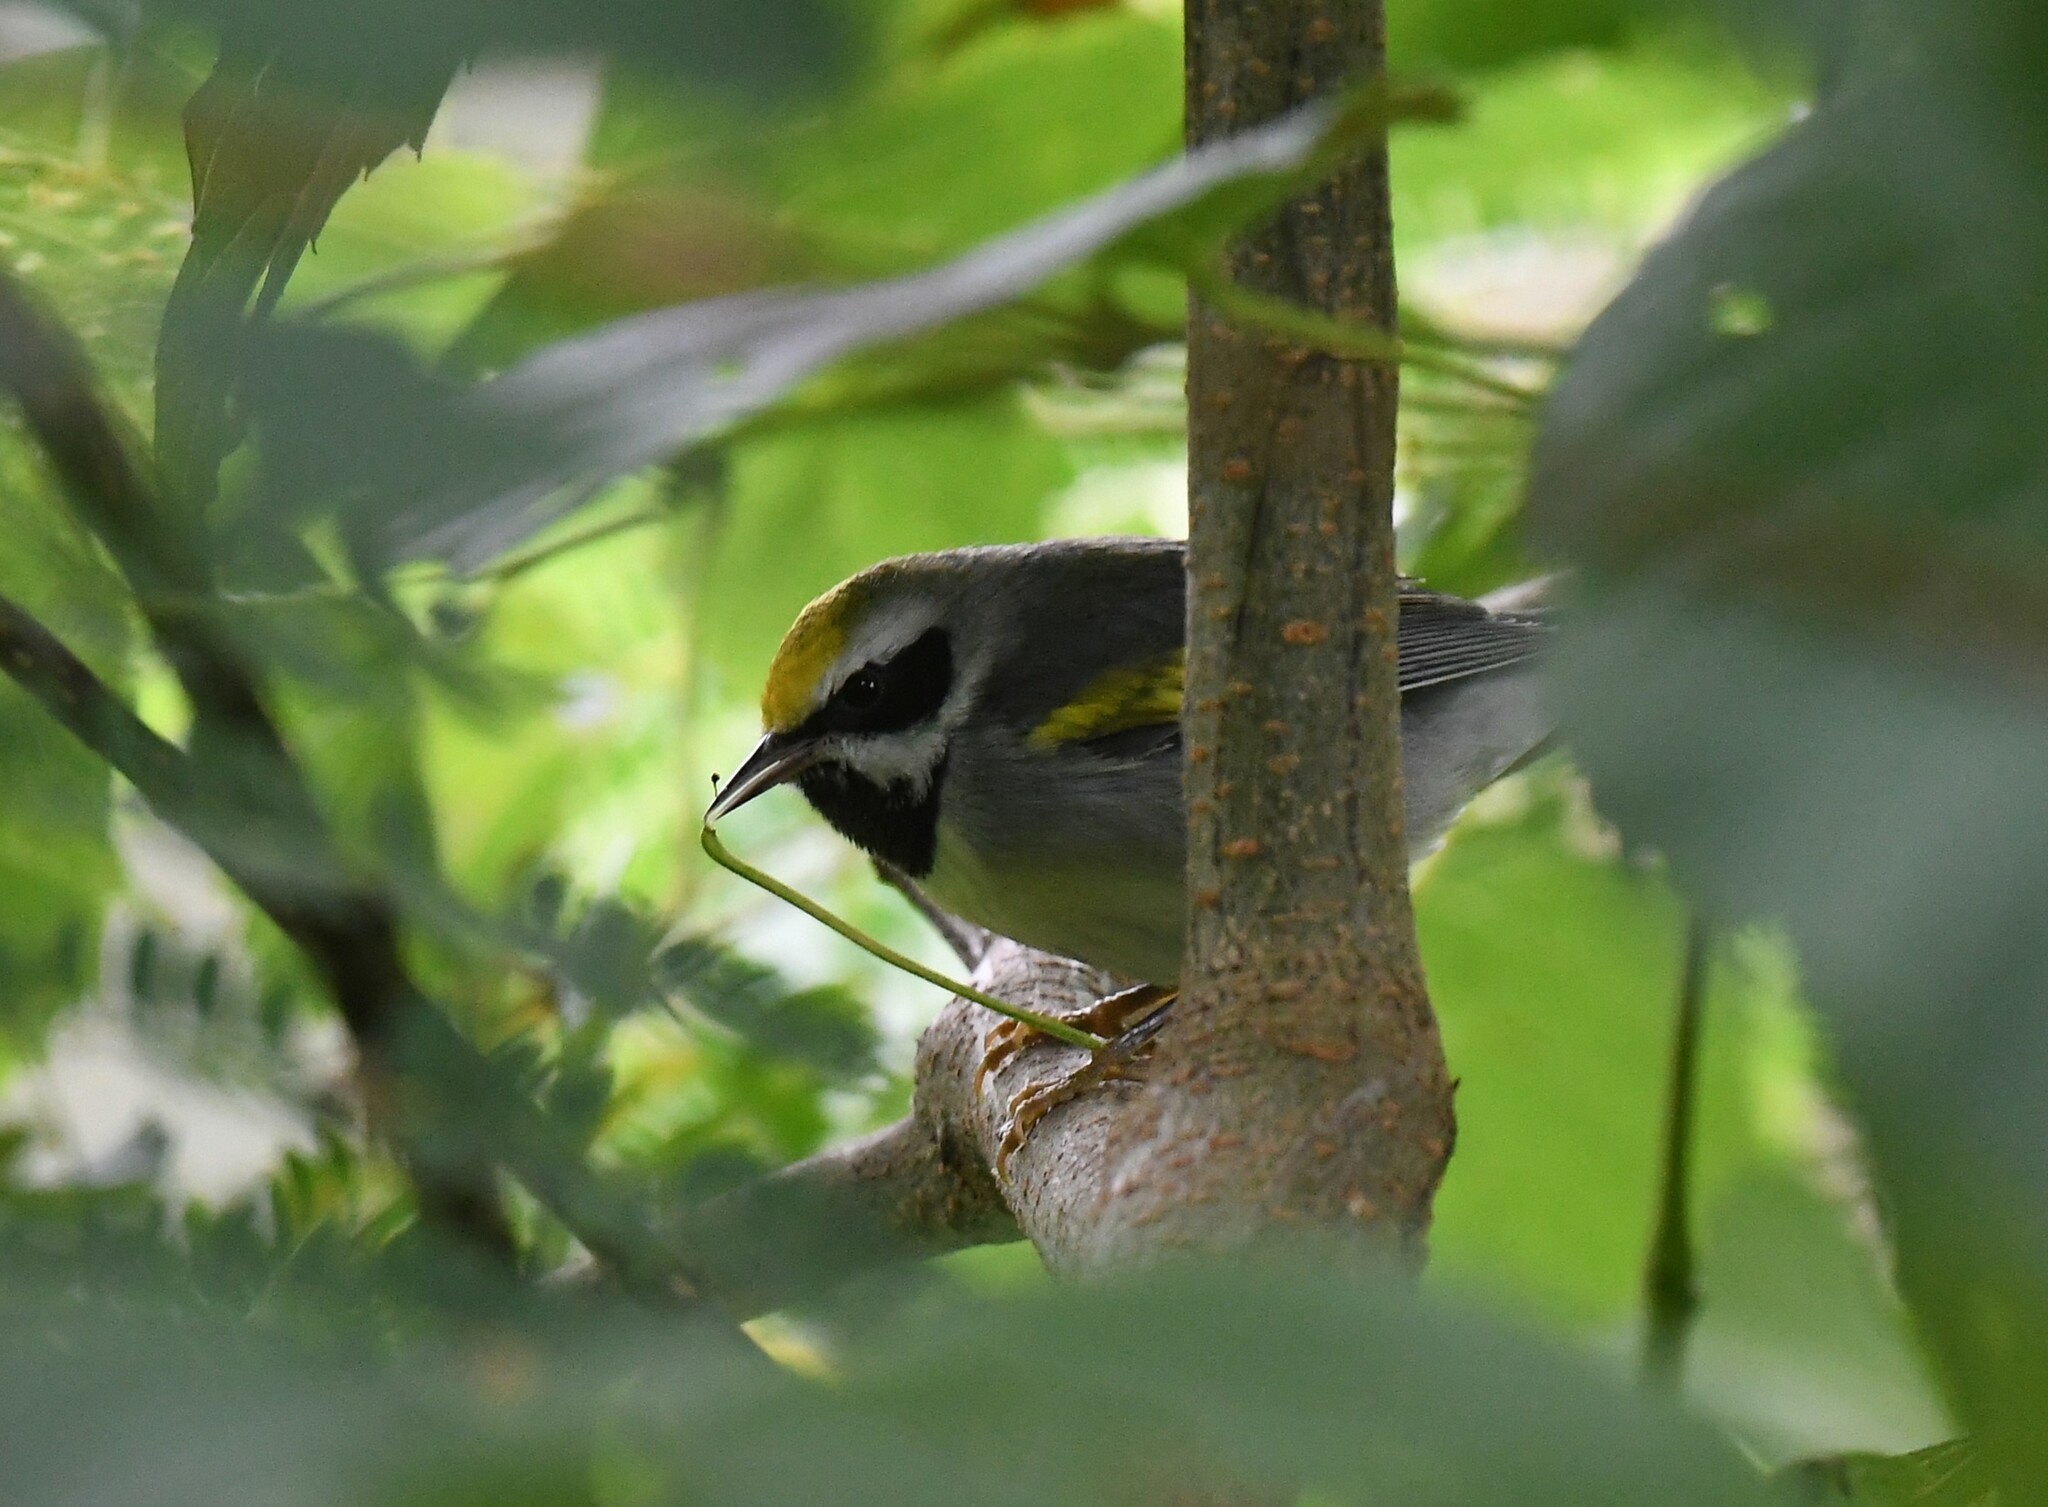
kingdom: Animalia
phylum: Chordata
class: Aves
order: Passeriformes
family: Parulidae
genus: Vermivora
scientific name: Vermivora chrysoptera
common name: Golden-winged warbler
